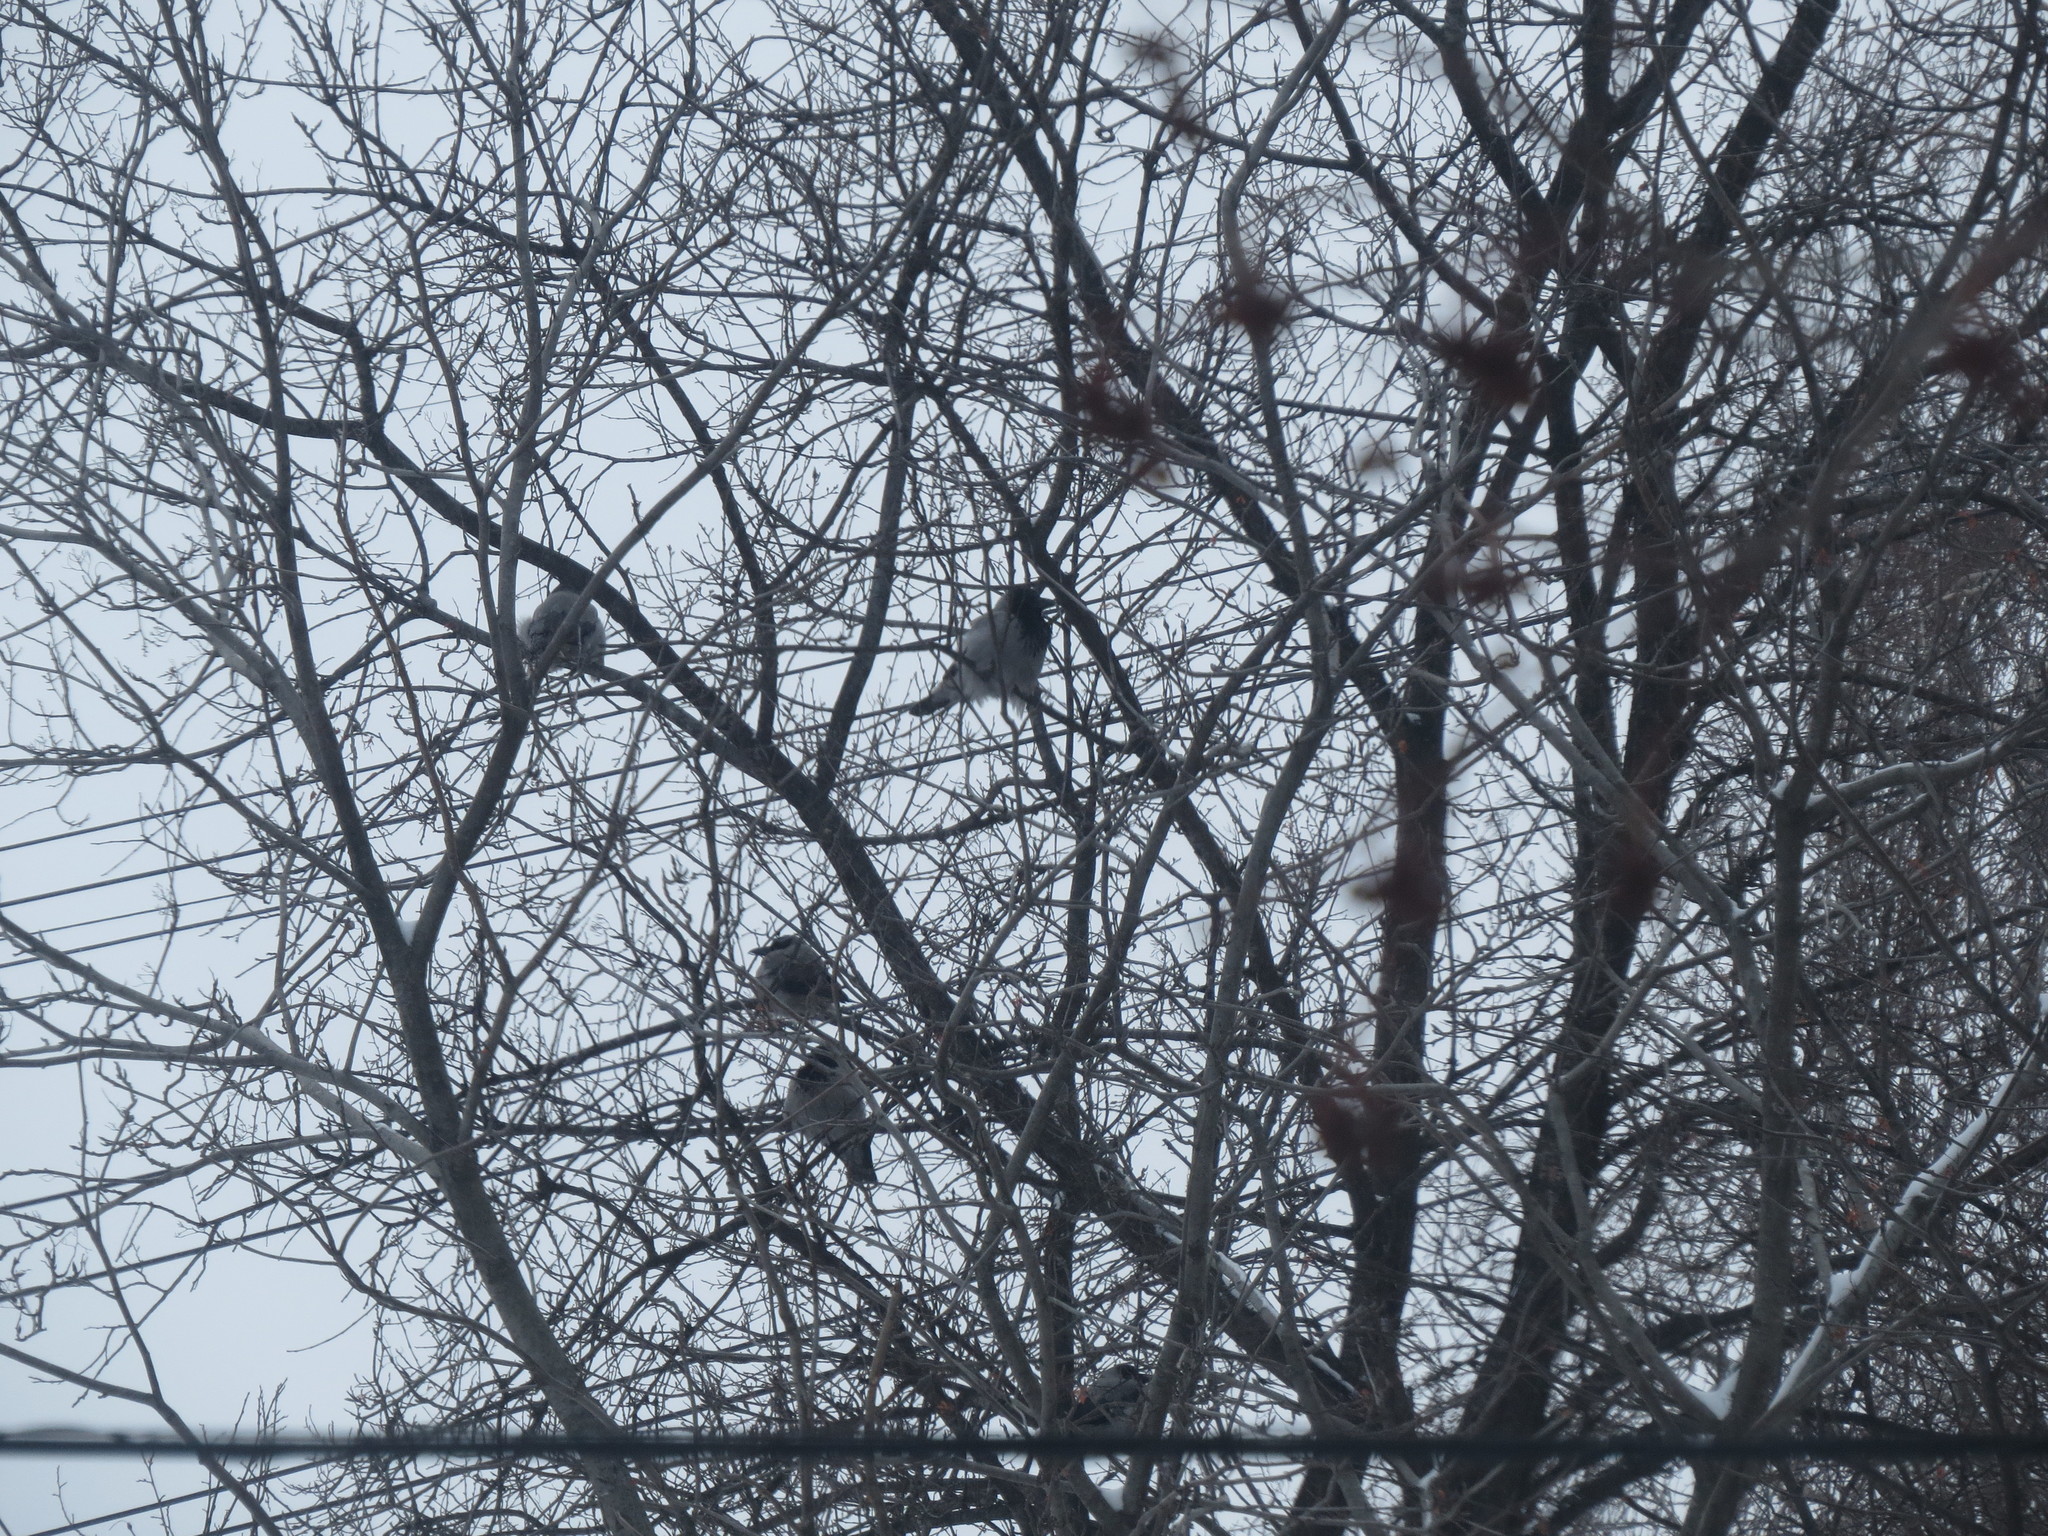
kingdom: Animalia
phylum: Chordata
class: Aves
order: Passeriformes
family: Corvidae
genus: Corvus
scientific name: Corvus cornix
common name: Hooded crow
